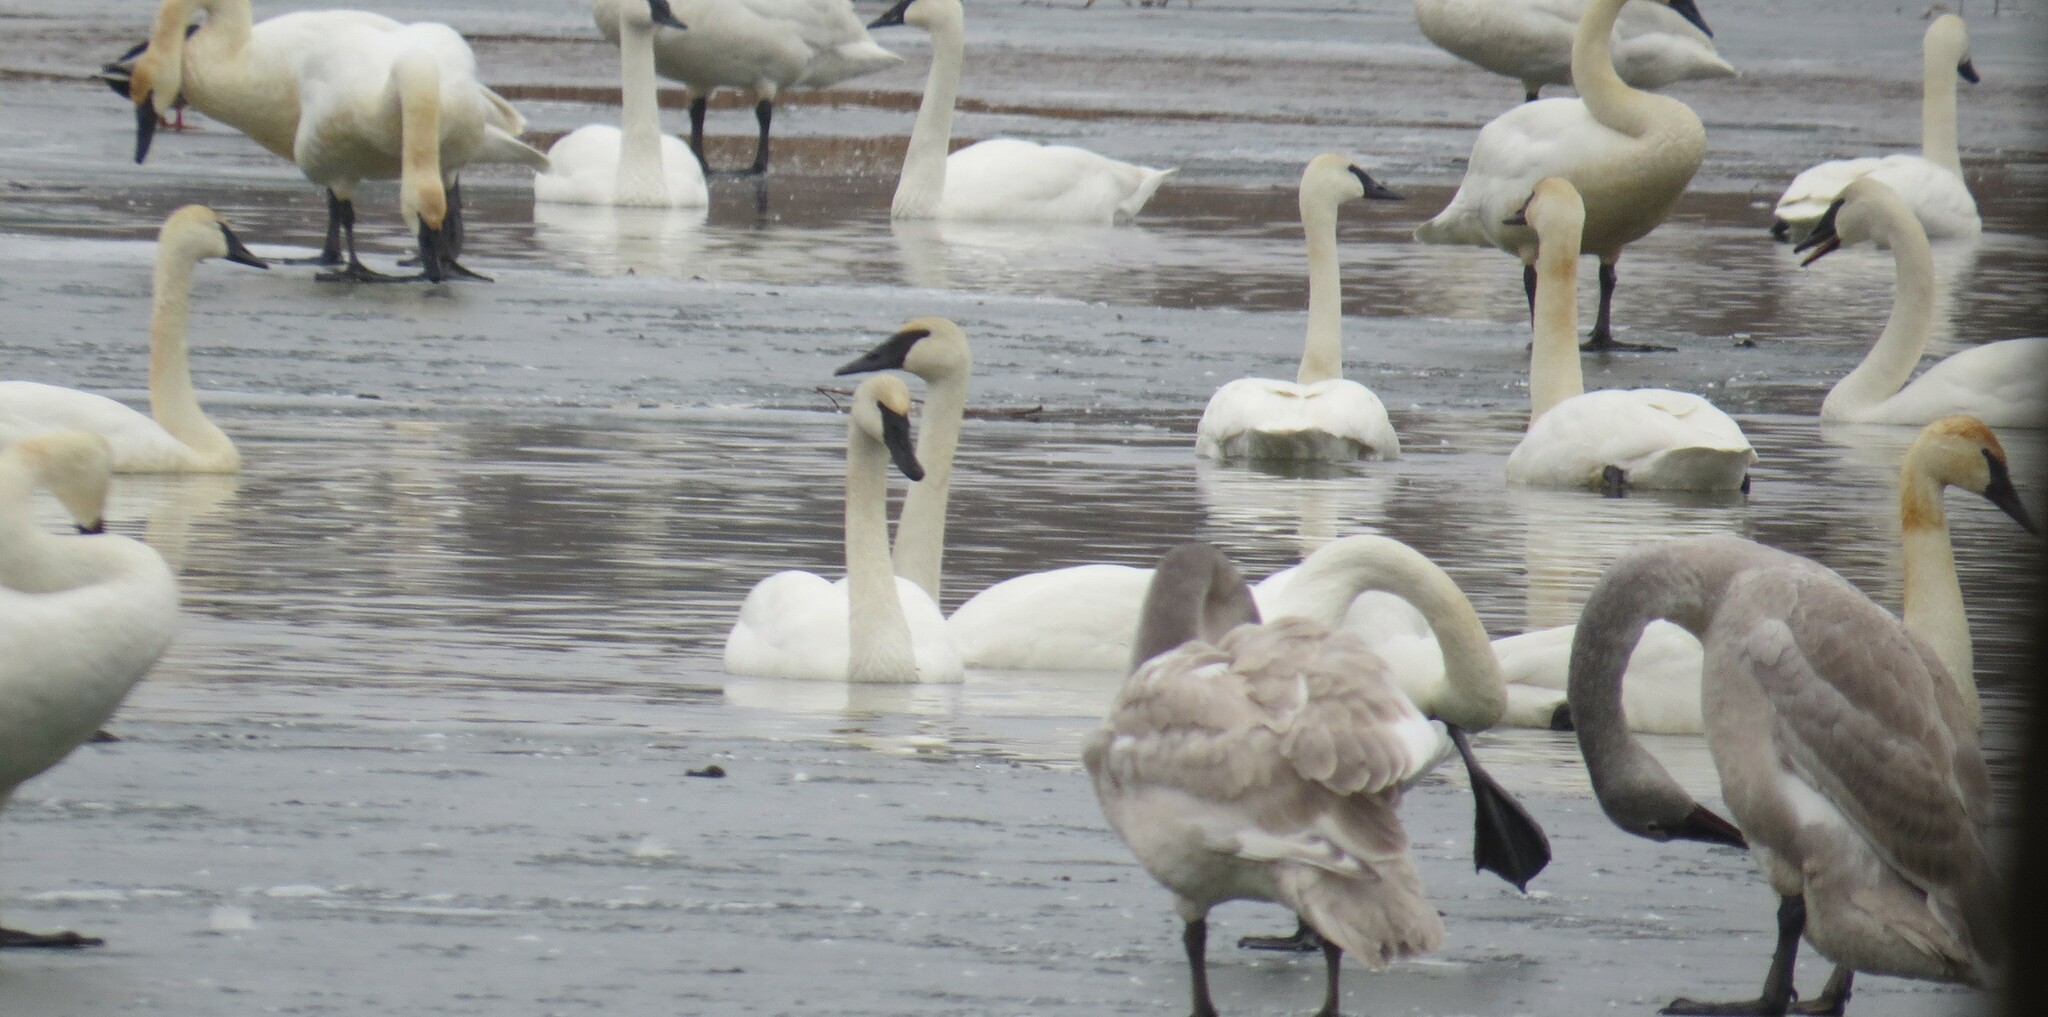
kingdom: Animalia
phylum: Chordata
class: Aves
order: Anseriformes
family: Anatidae
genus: Cygnus
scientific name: Cygnus buccinator
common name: Trumpeter swan
